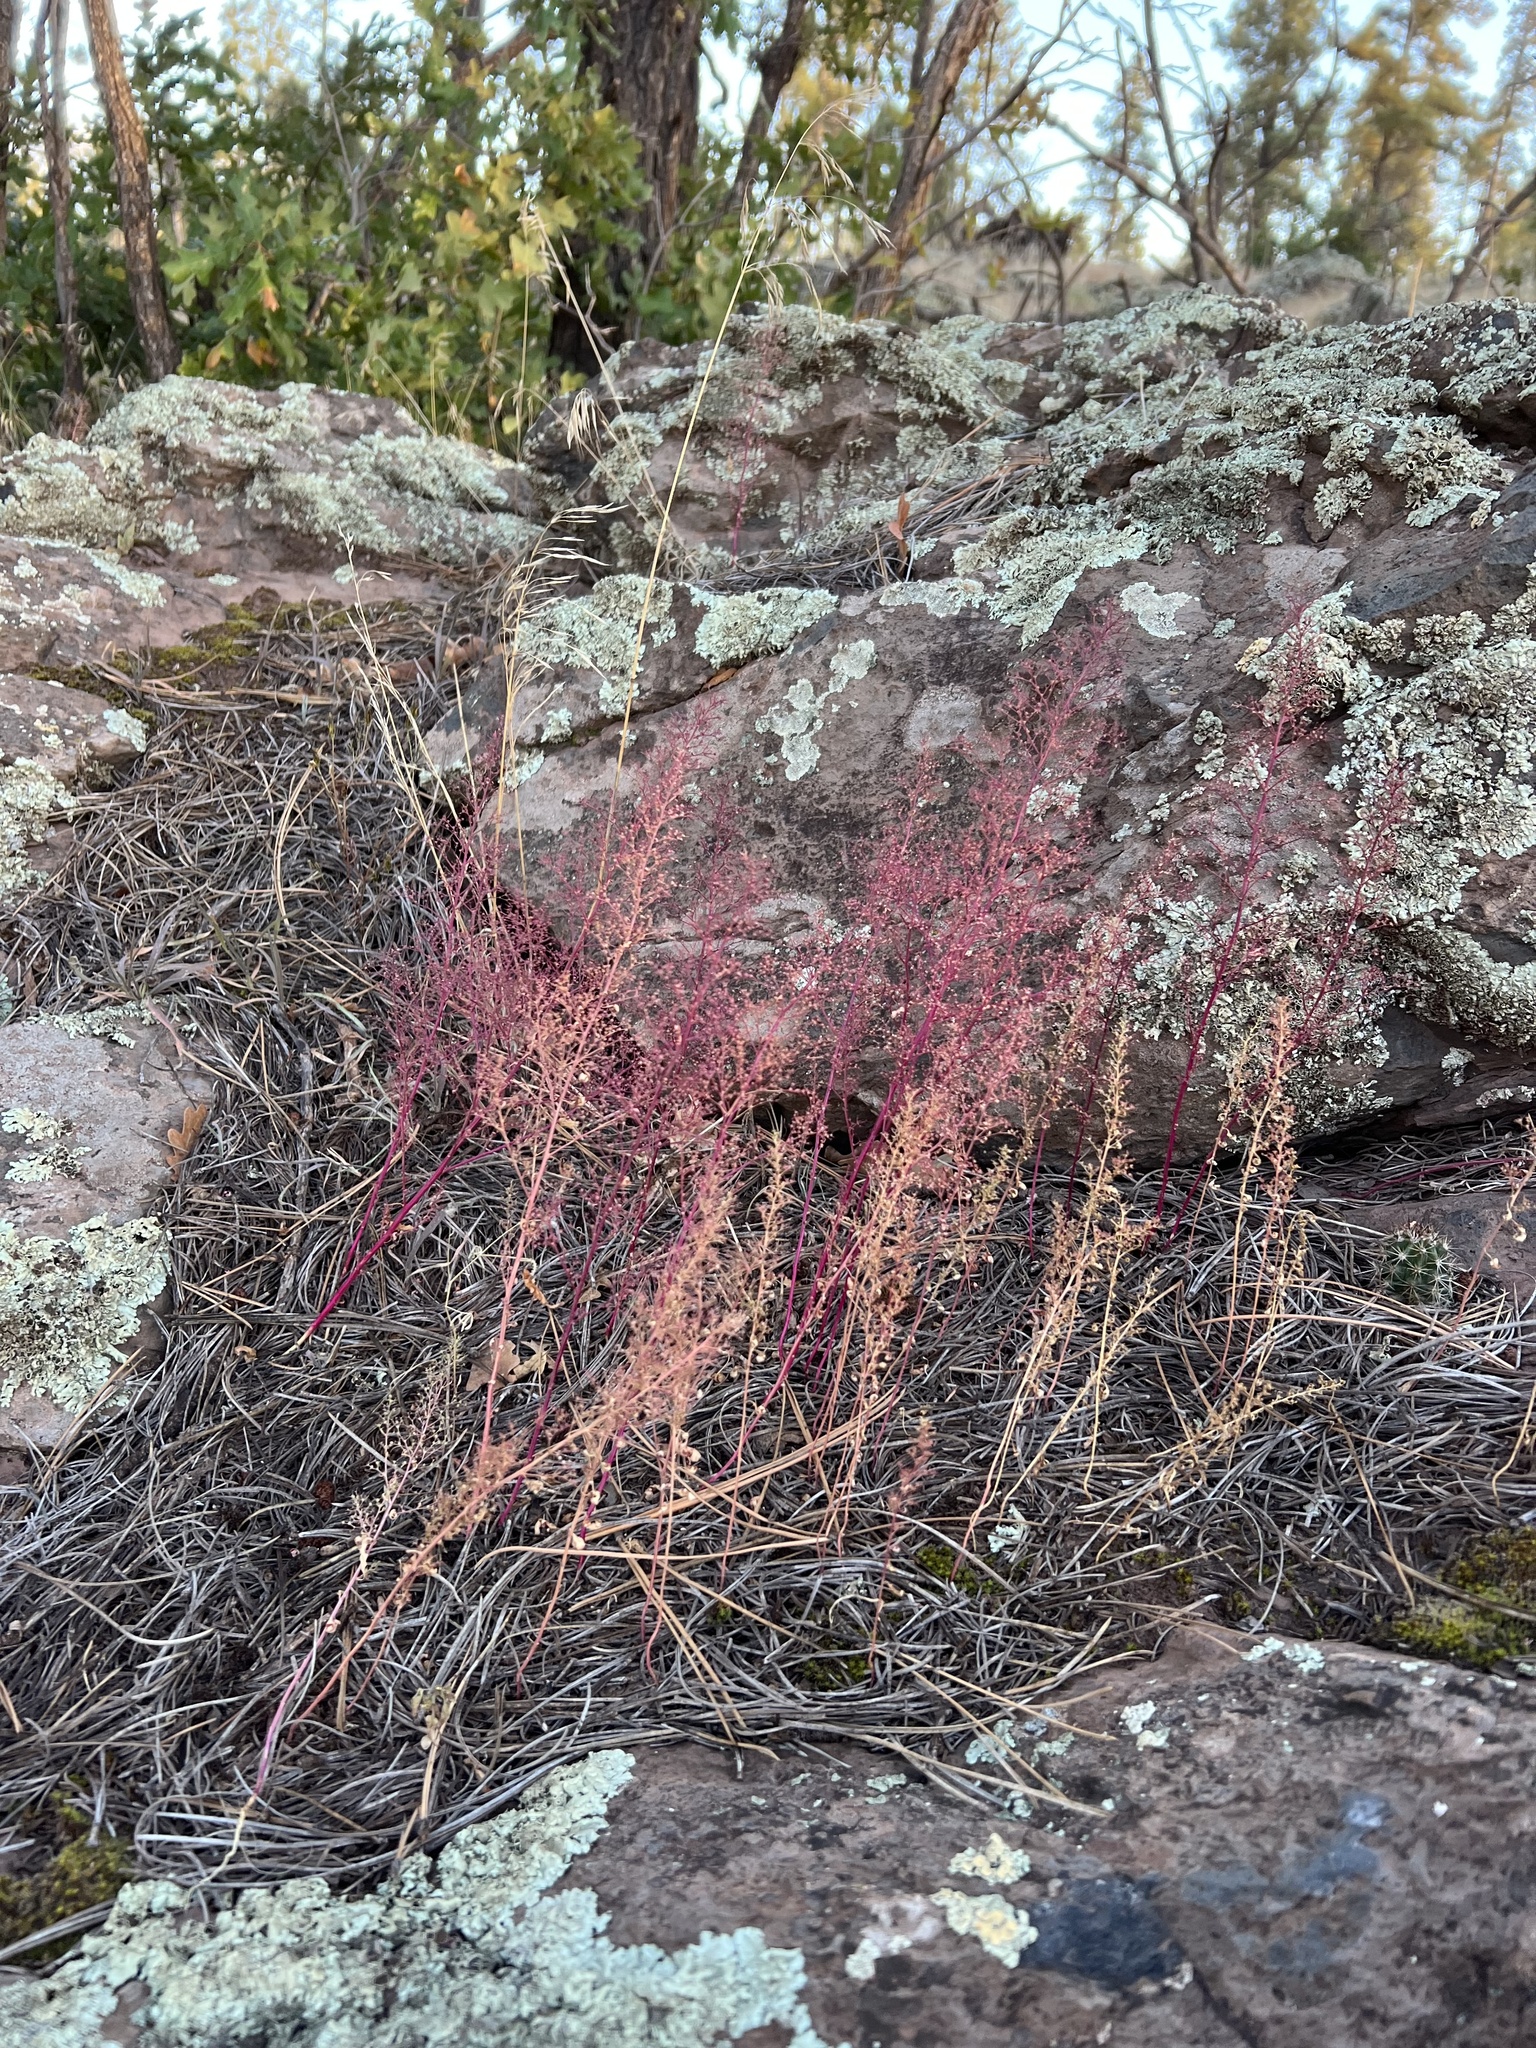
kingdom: Plantae
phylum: Tracheophyta
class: Magnoliopsida
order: Caryophyllales
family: Amaranthaceae
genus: Dysphania
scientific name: Dysphania incisa
